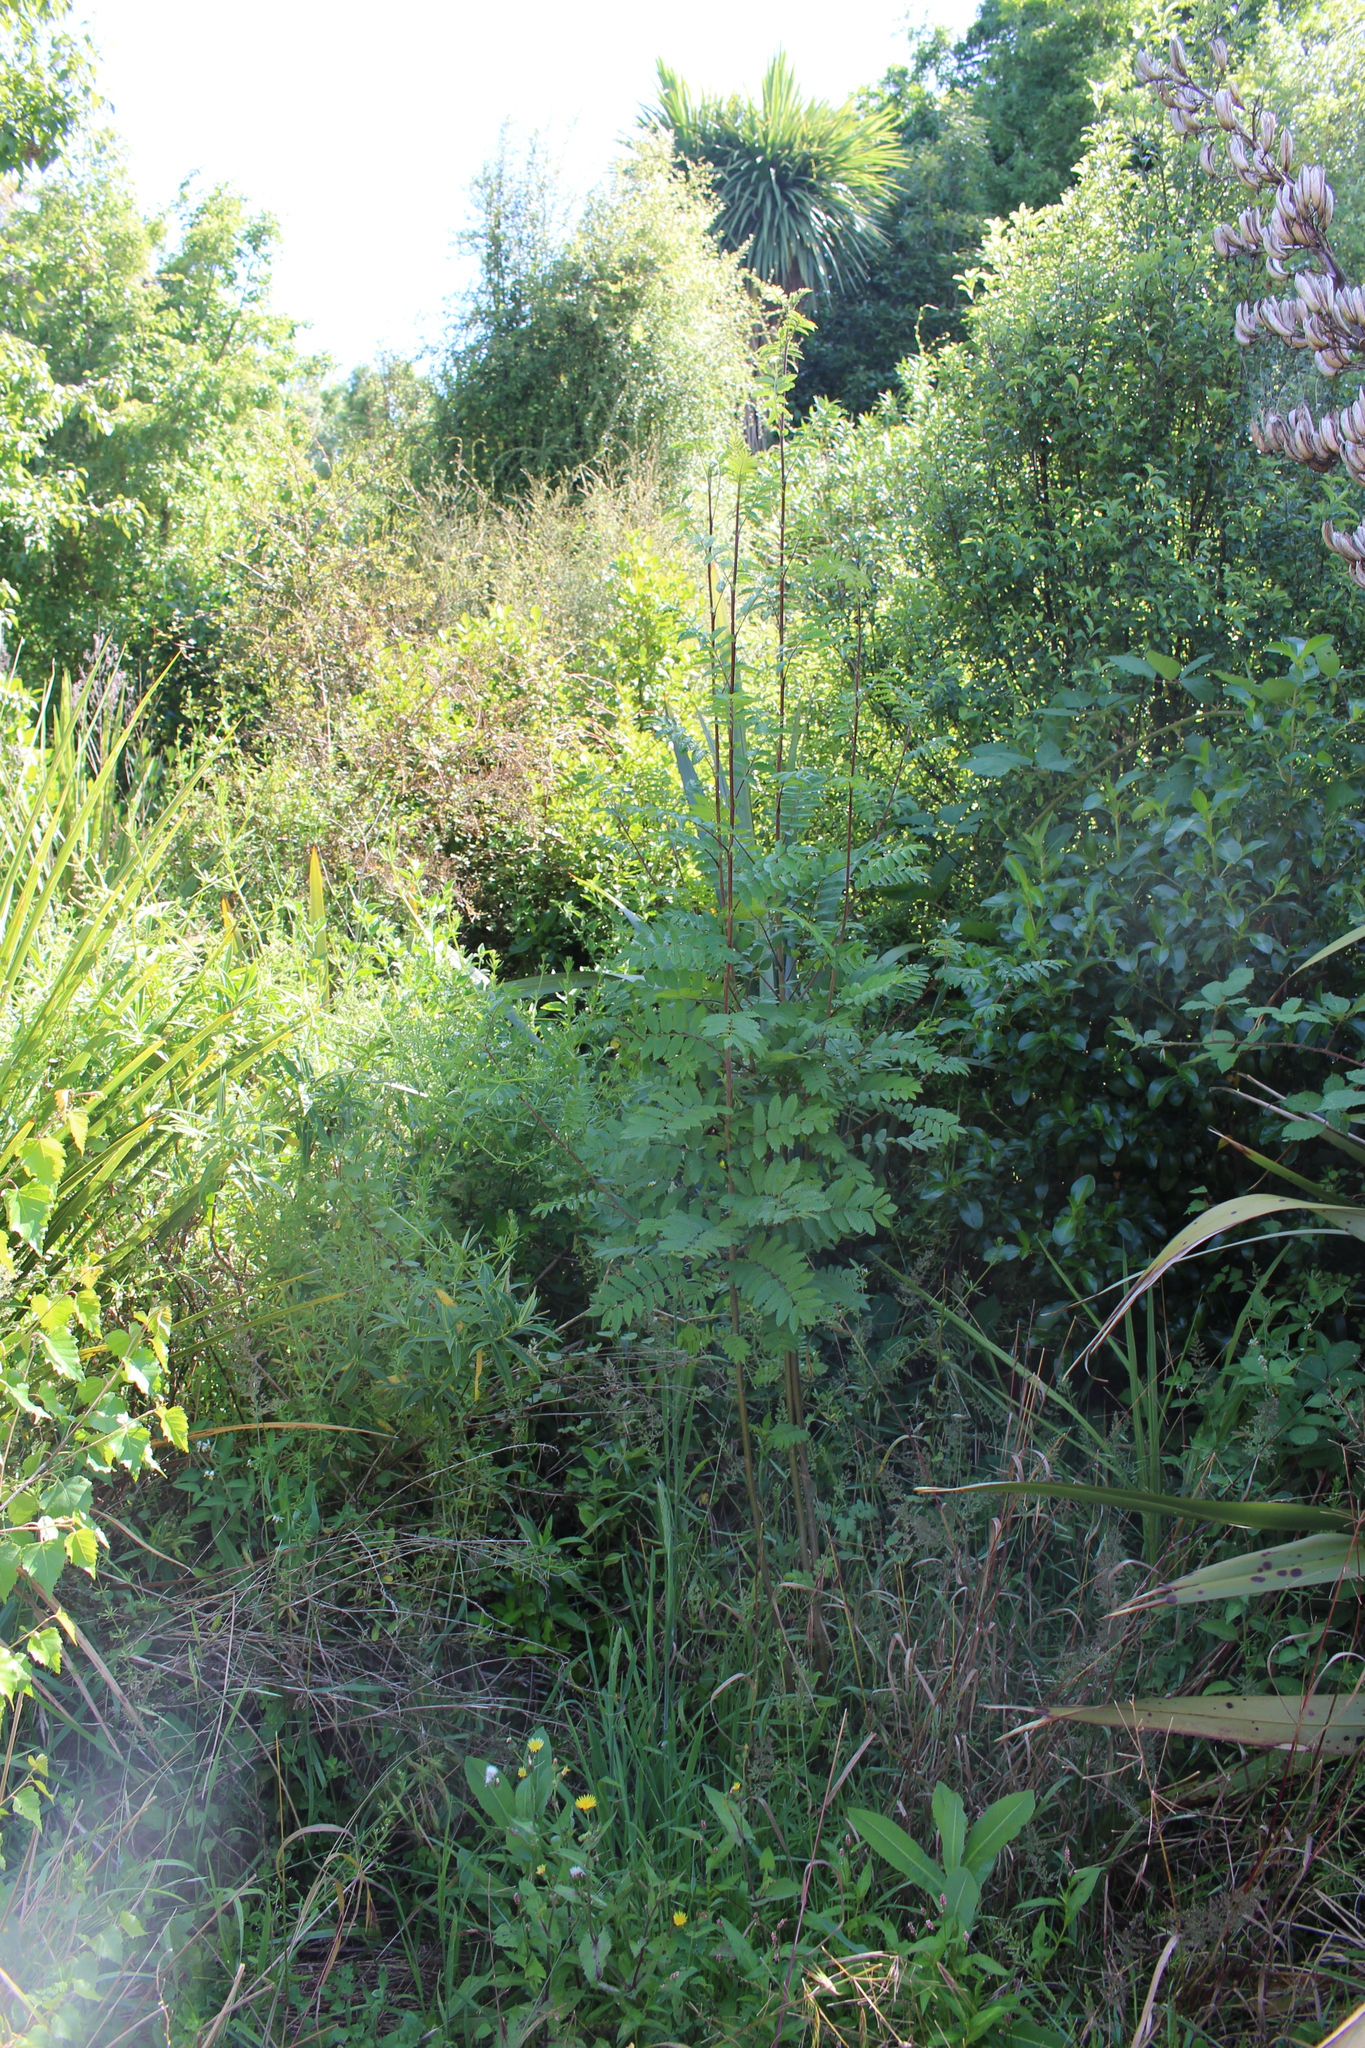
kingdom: Plantae
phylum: Tracheophyta
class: Magnoliopsida
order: Rosales
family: Rosaceae
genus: Sorbus
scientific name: Sorbus aucuparia
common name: Rowan
